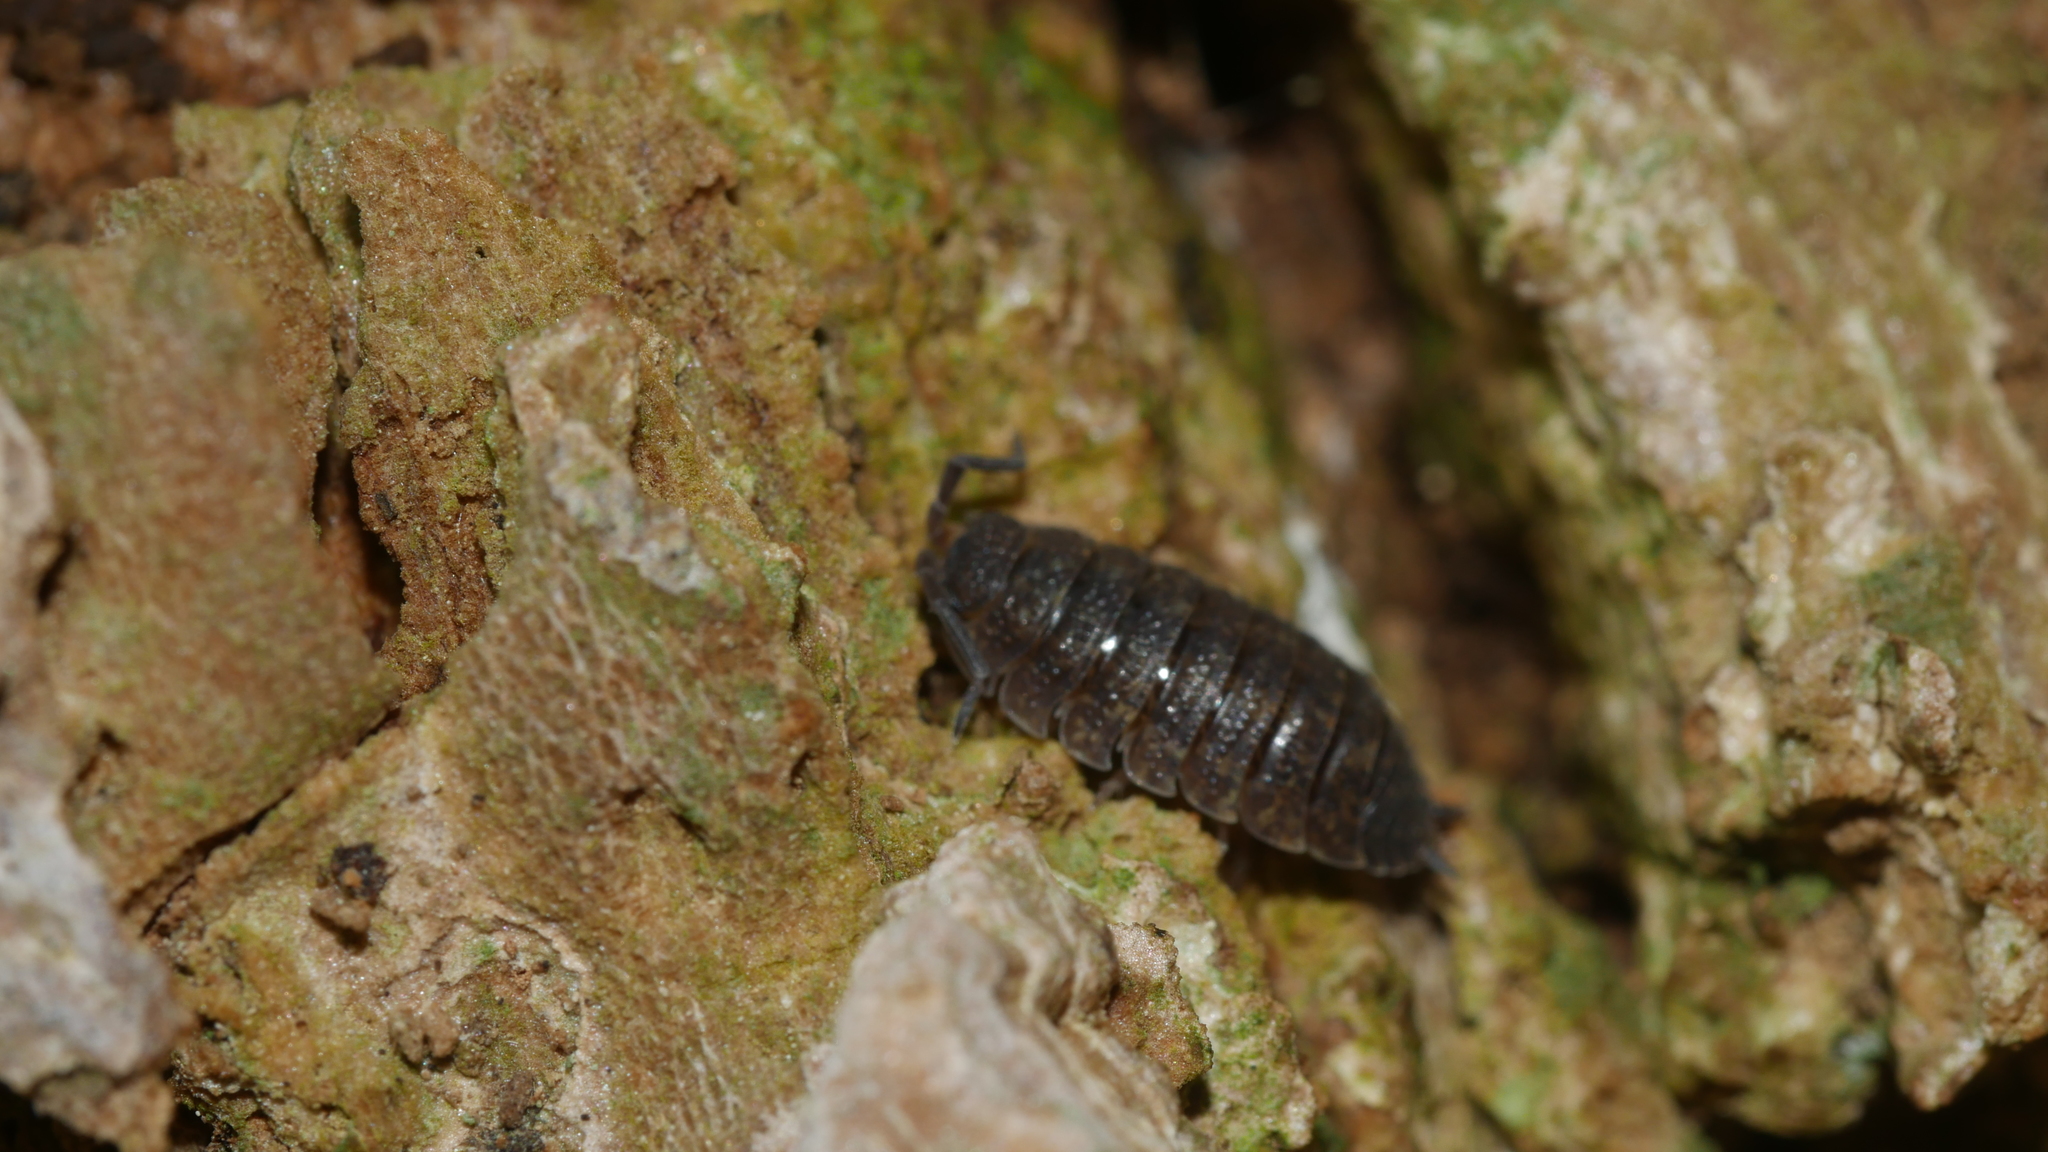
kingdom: Animalia
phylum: Arthropoda
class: Malacostraca
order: Isopoda
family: Porcellionidae
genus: Porcellio
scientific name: Porcellio scaber
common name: Common rough woodlouse
